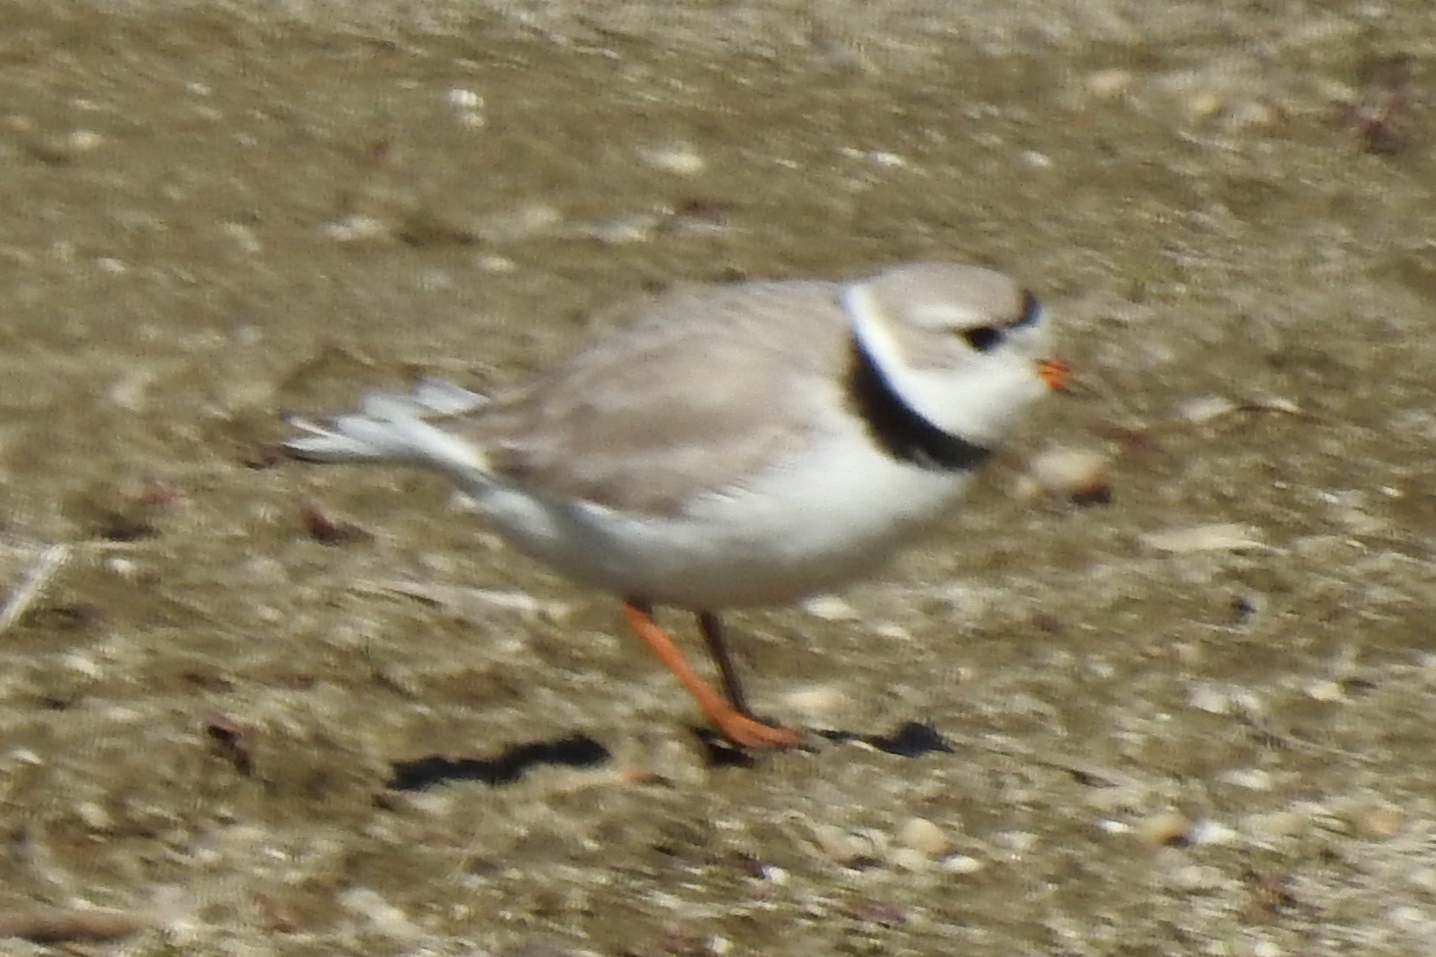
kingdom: Animalia
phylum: Chordata
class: Aves
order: Charadriiformes
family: Charadriidae
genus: Charadrius
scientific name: Charadrius melodus
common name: Piping plover
